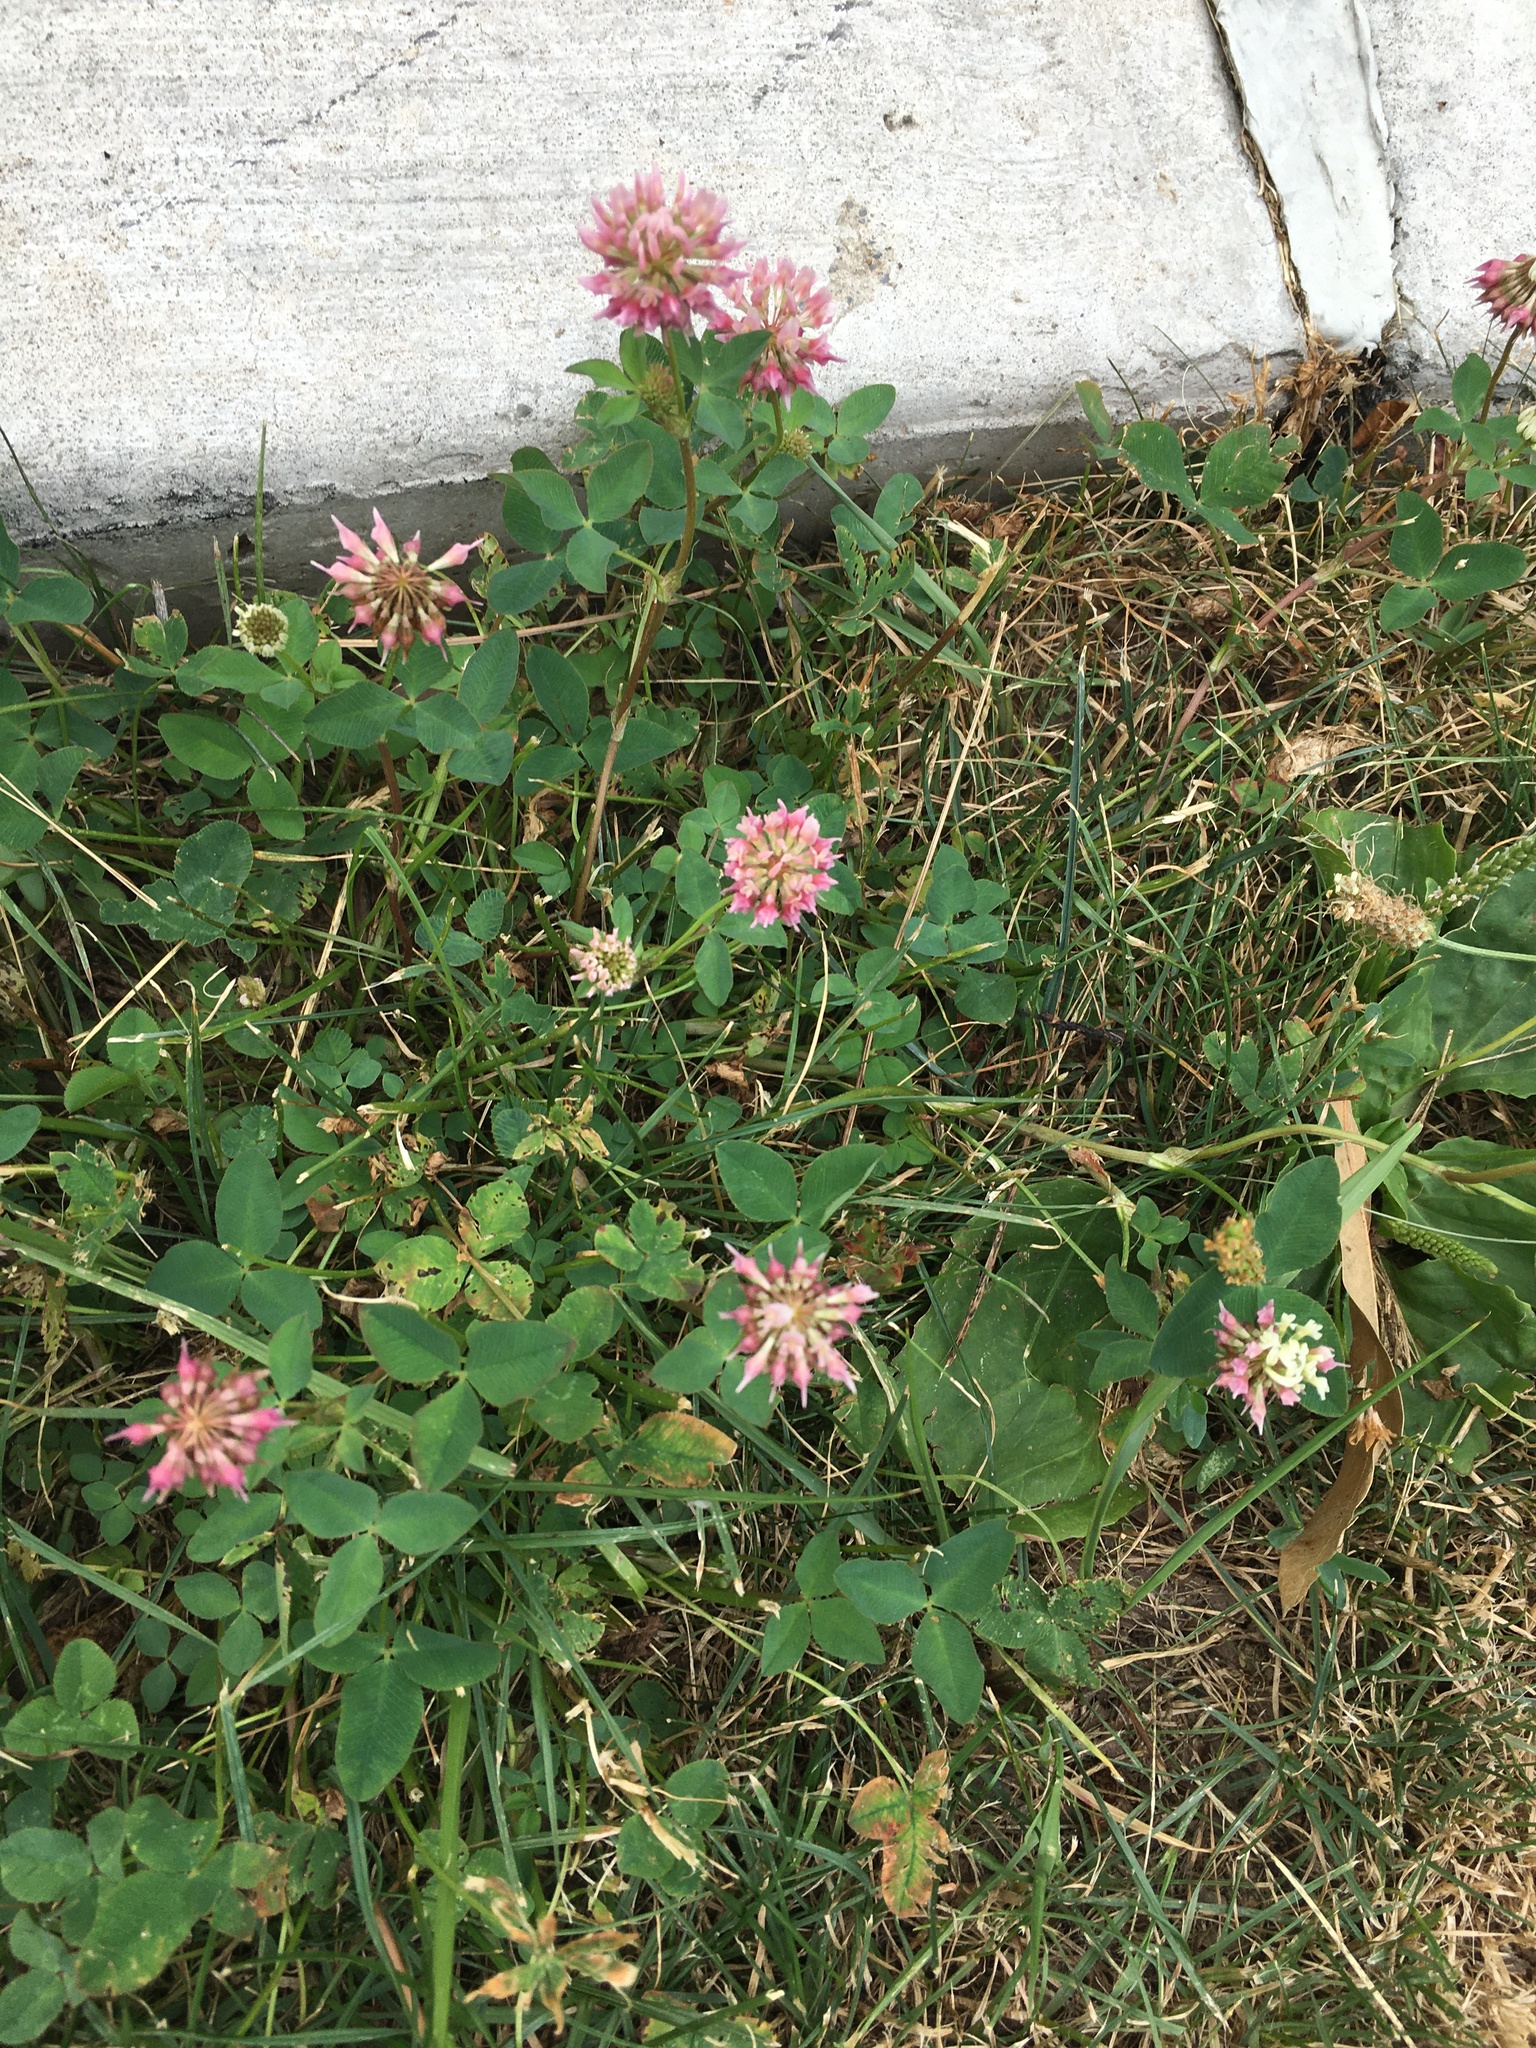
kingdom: Plantae
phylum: Tracheophyta
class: Magnoliopsida
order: Fabales
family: Fabaceae
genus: Trifolium
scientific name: Trifolium hybridum
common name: Alsike clover
